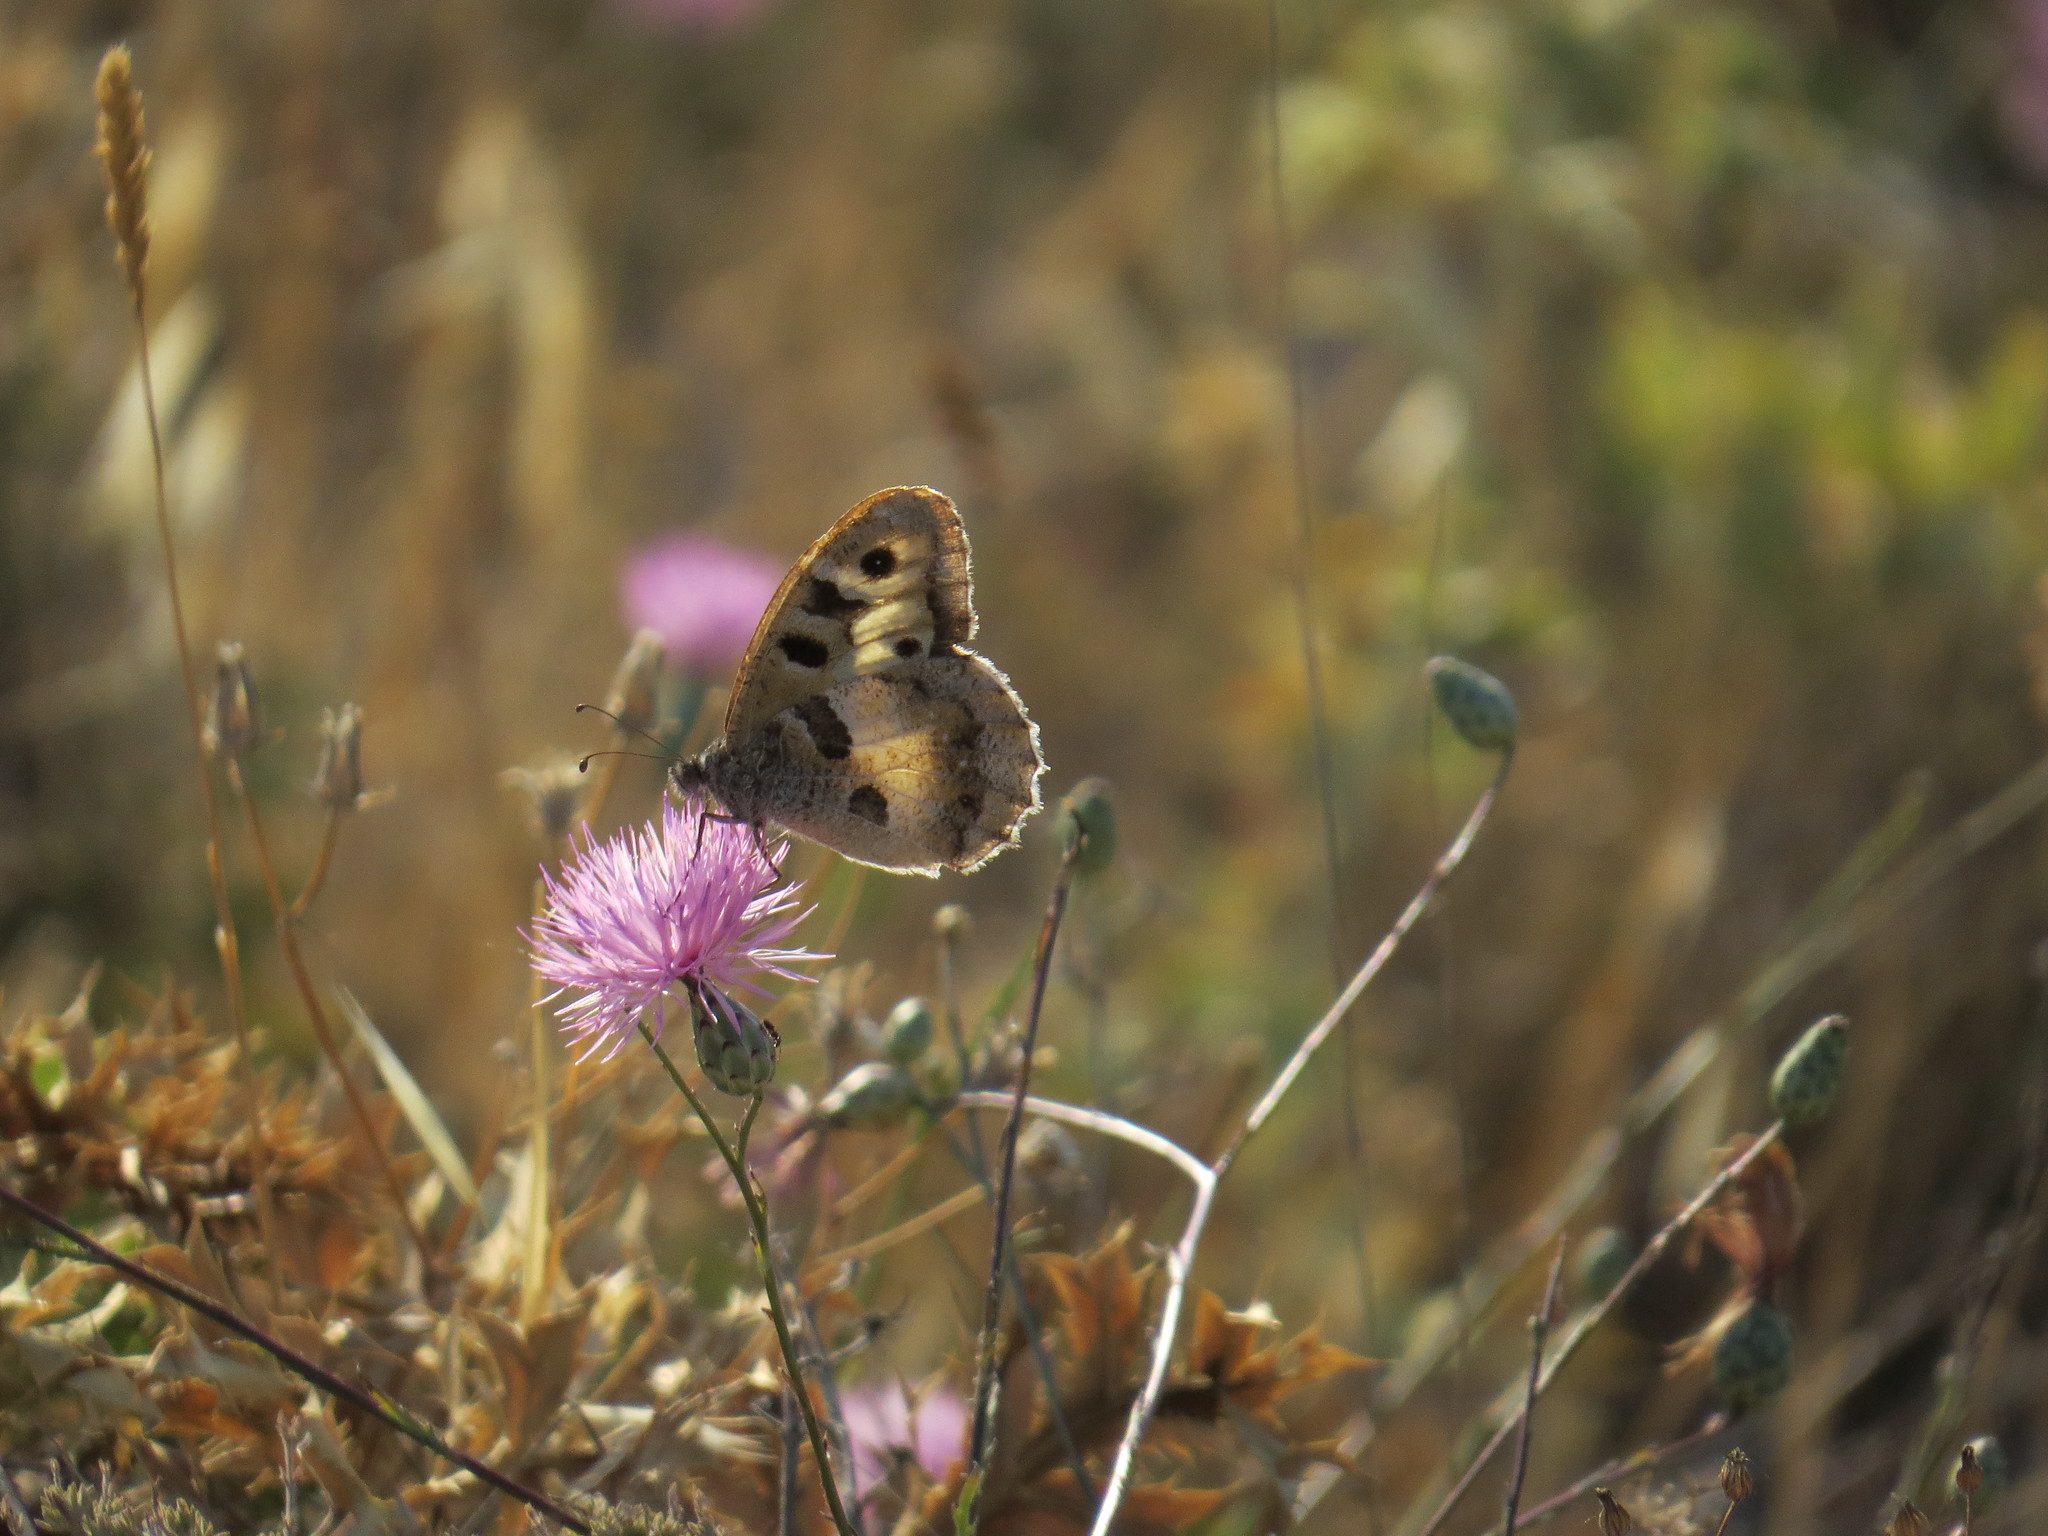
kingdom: Animalia
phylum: Arthropoda
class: Insecta
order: Lepidoptera
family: Nymphalidae
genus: Satyrus
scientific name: Satyrus briseis
